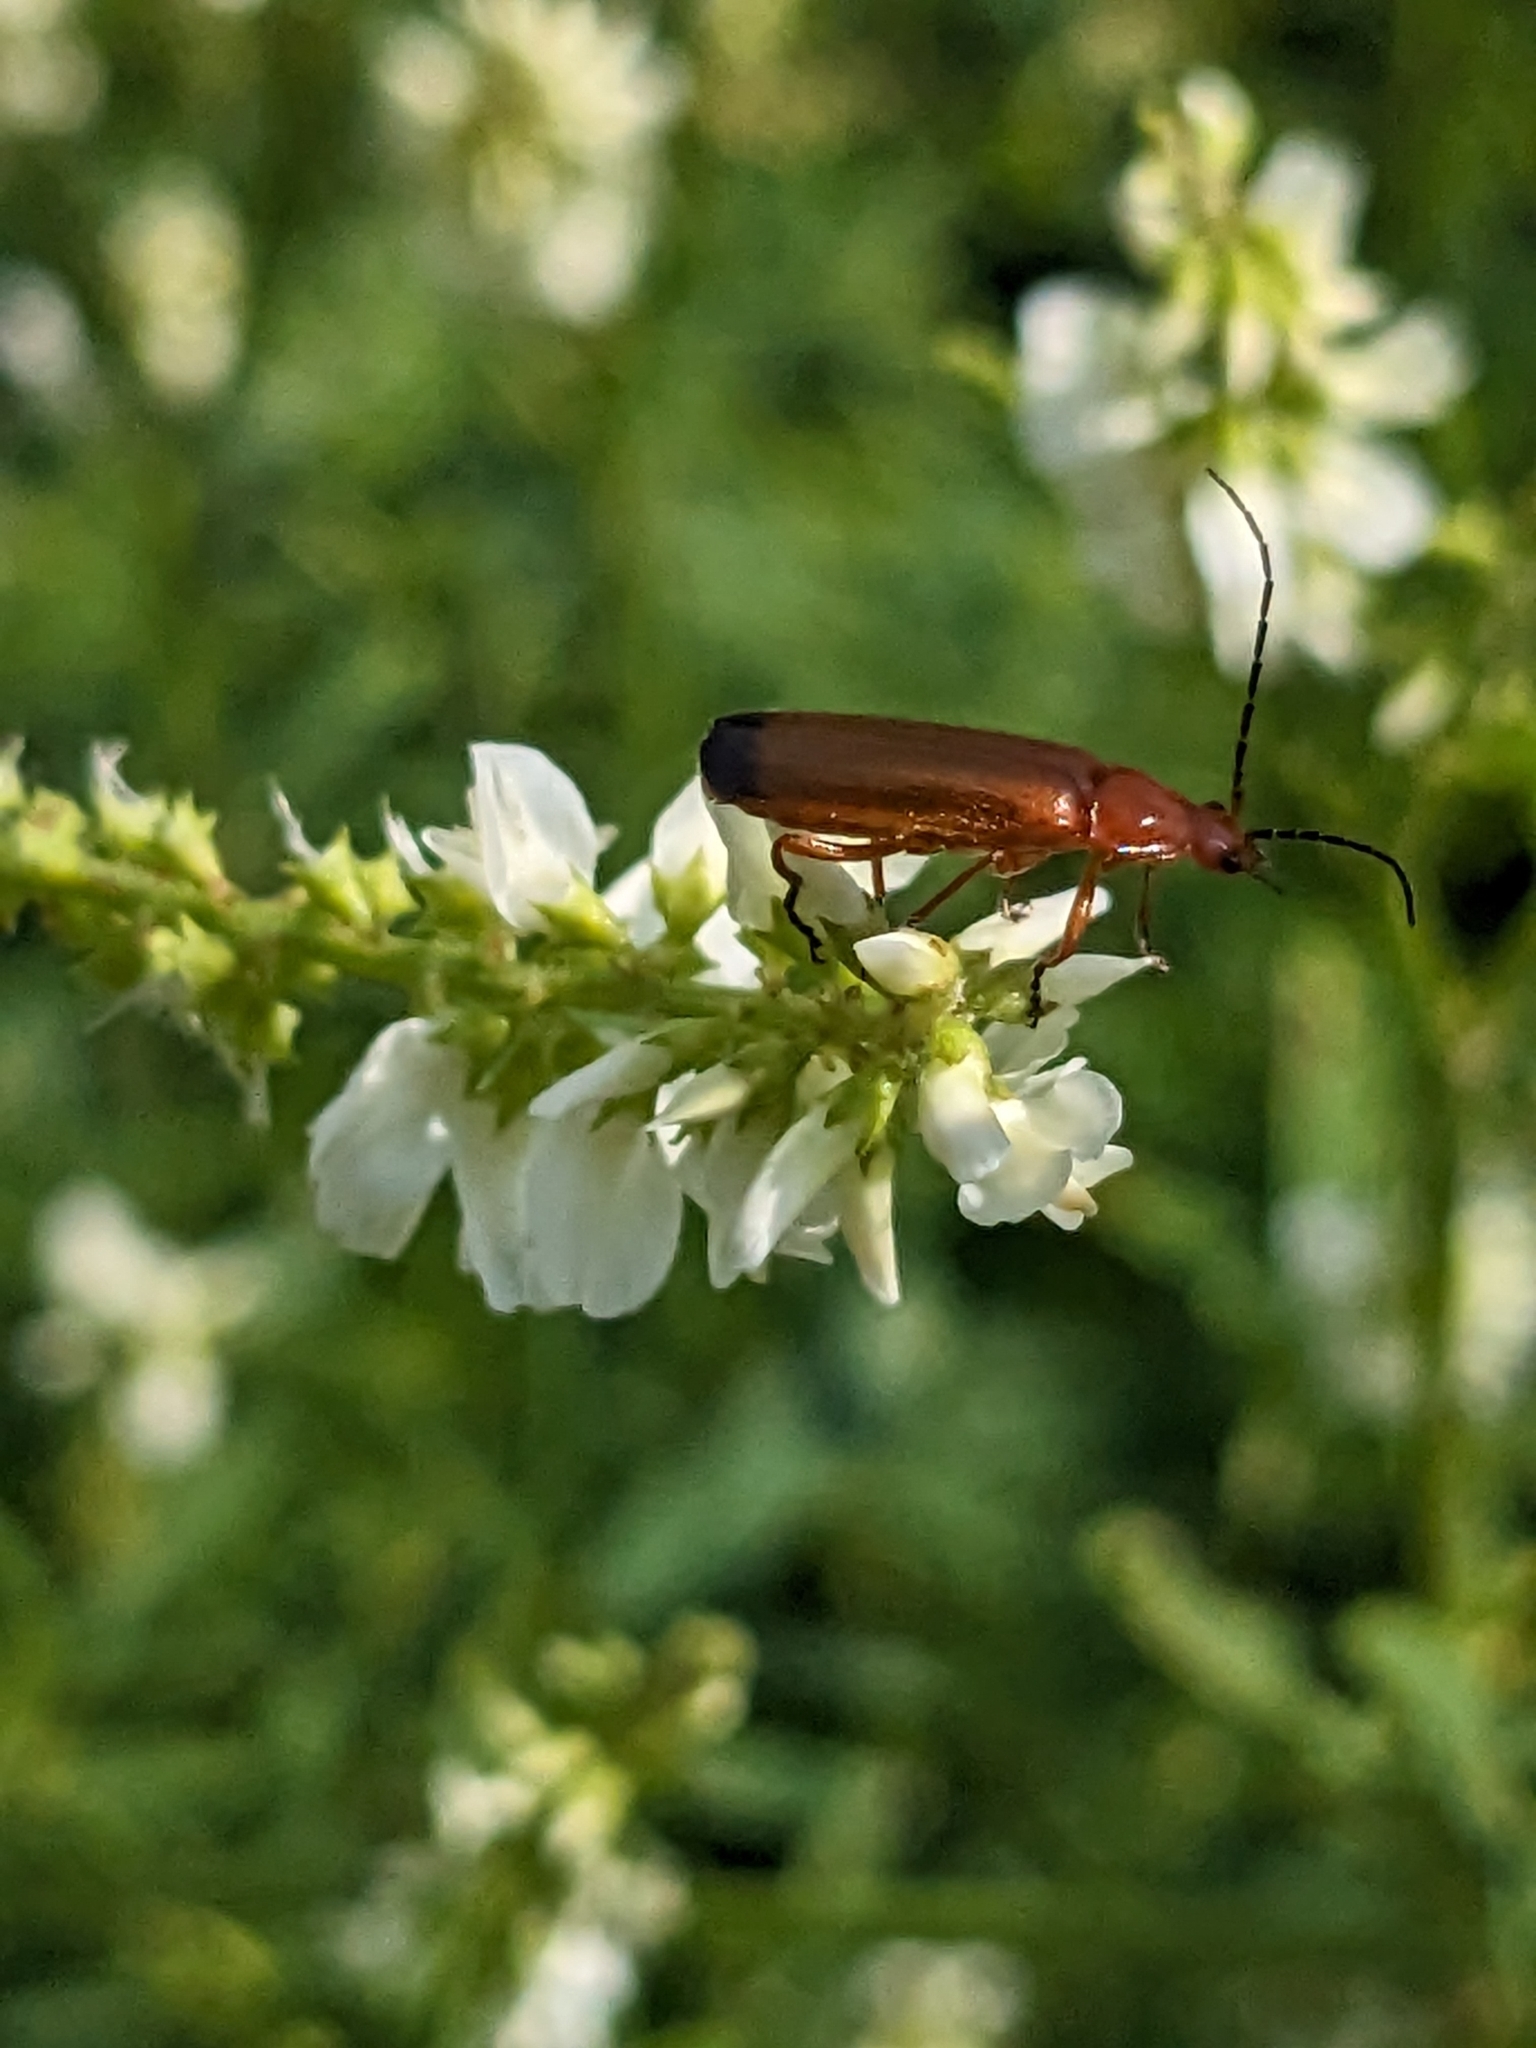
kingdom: Animalia
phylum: Arthropoda
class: Insecta
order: Coleoptera
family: Cantharidae
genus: Rhagonycha
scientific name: Rhagonycha fulva
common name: Common red soldier beetle
